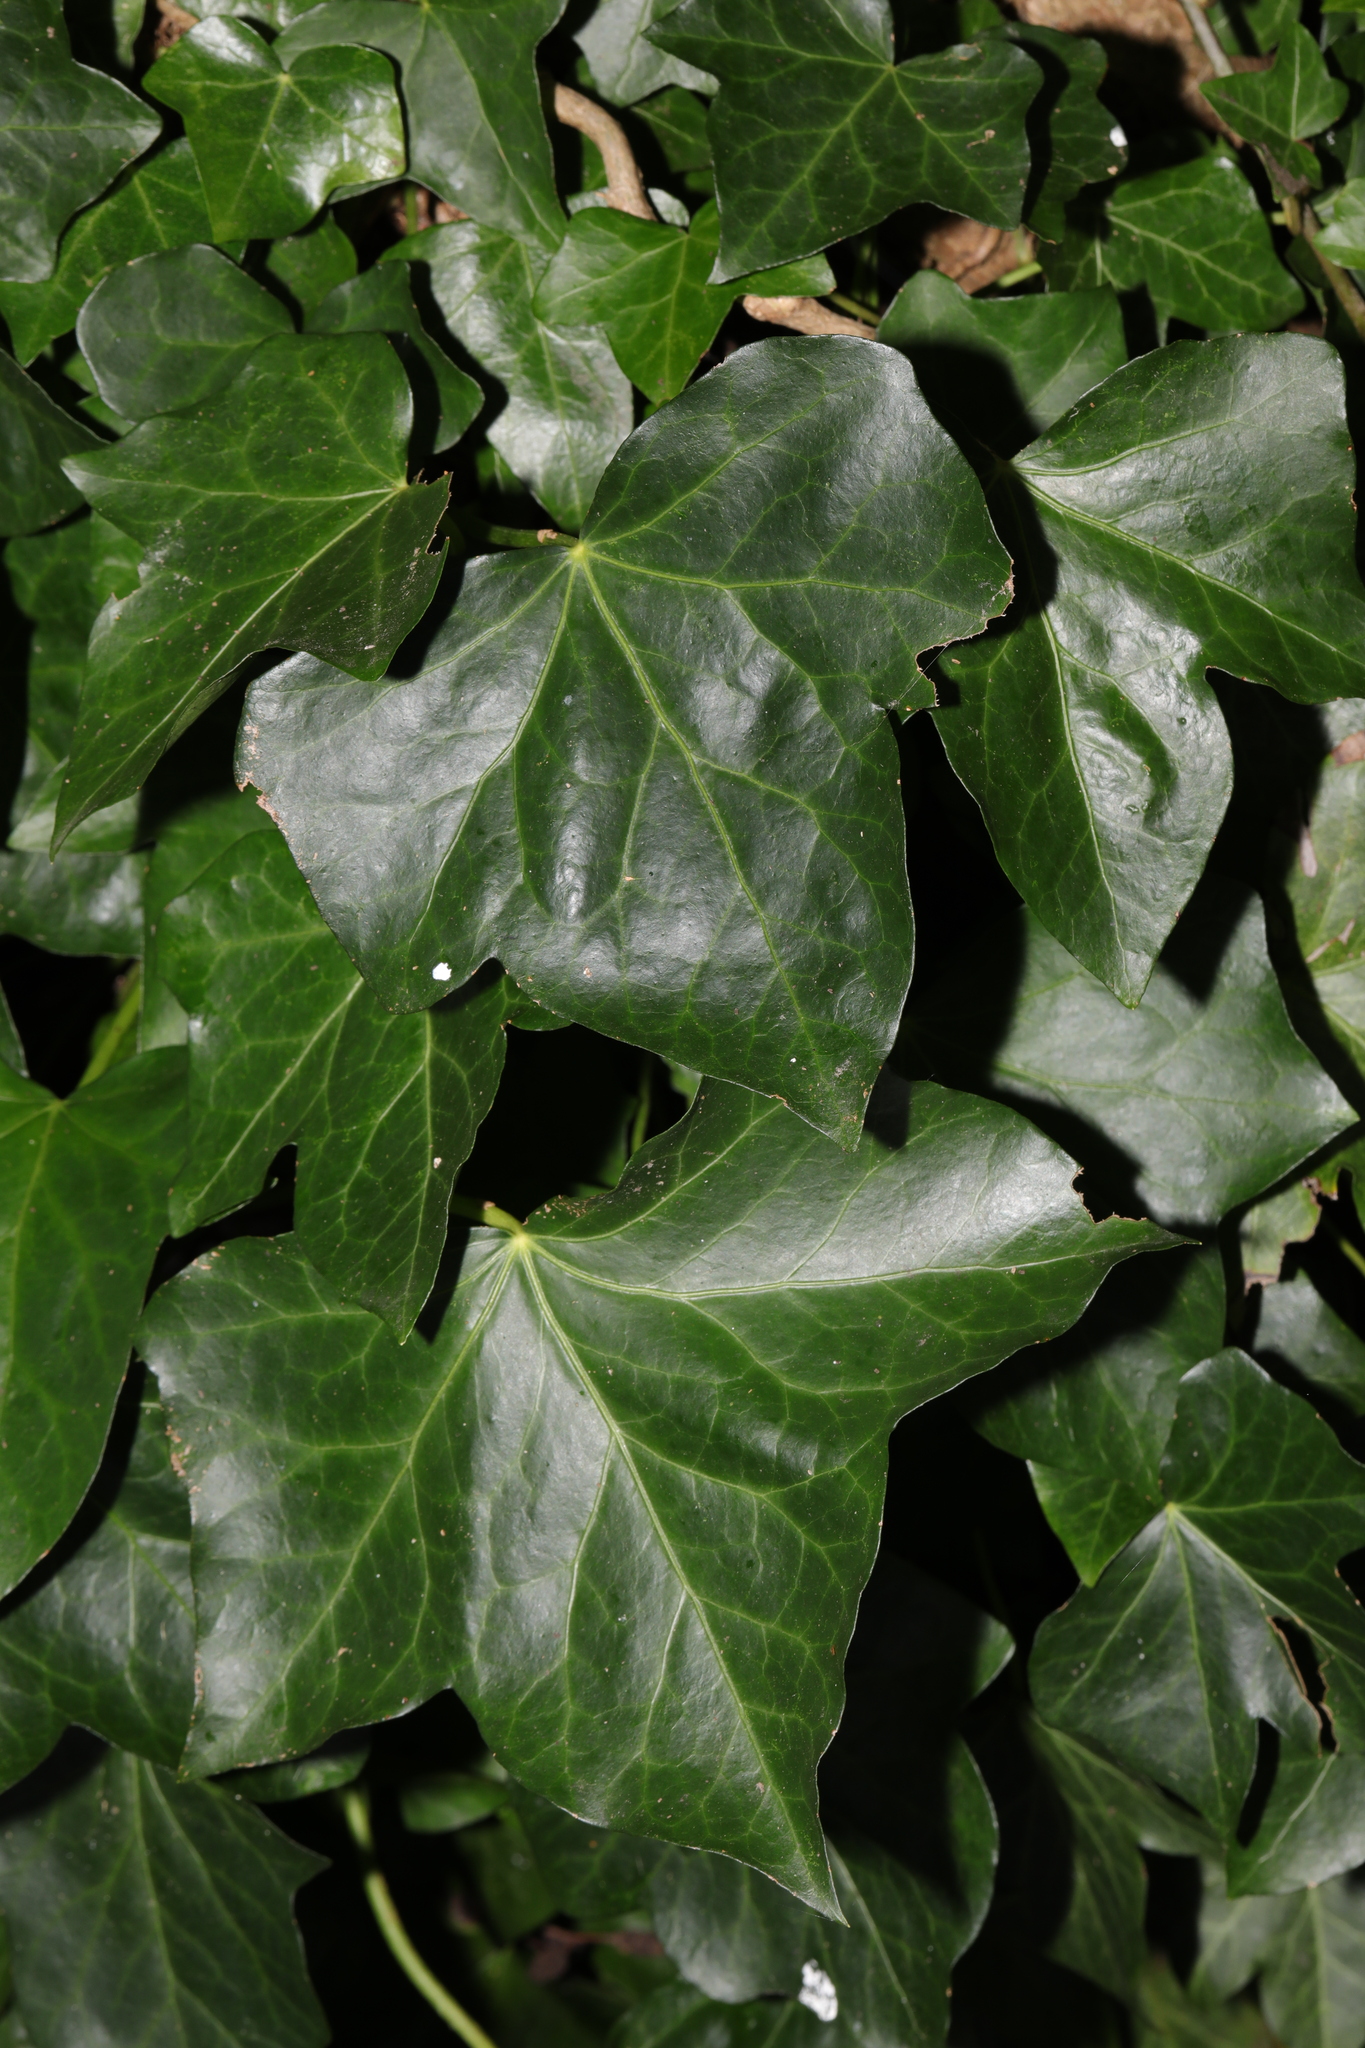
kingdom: Plantae
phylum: Tracheophyta
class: Magnoliopsida
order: Apiales
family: Araliaceae
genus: Hedera
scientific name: Hedera helix
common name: Ivy
